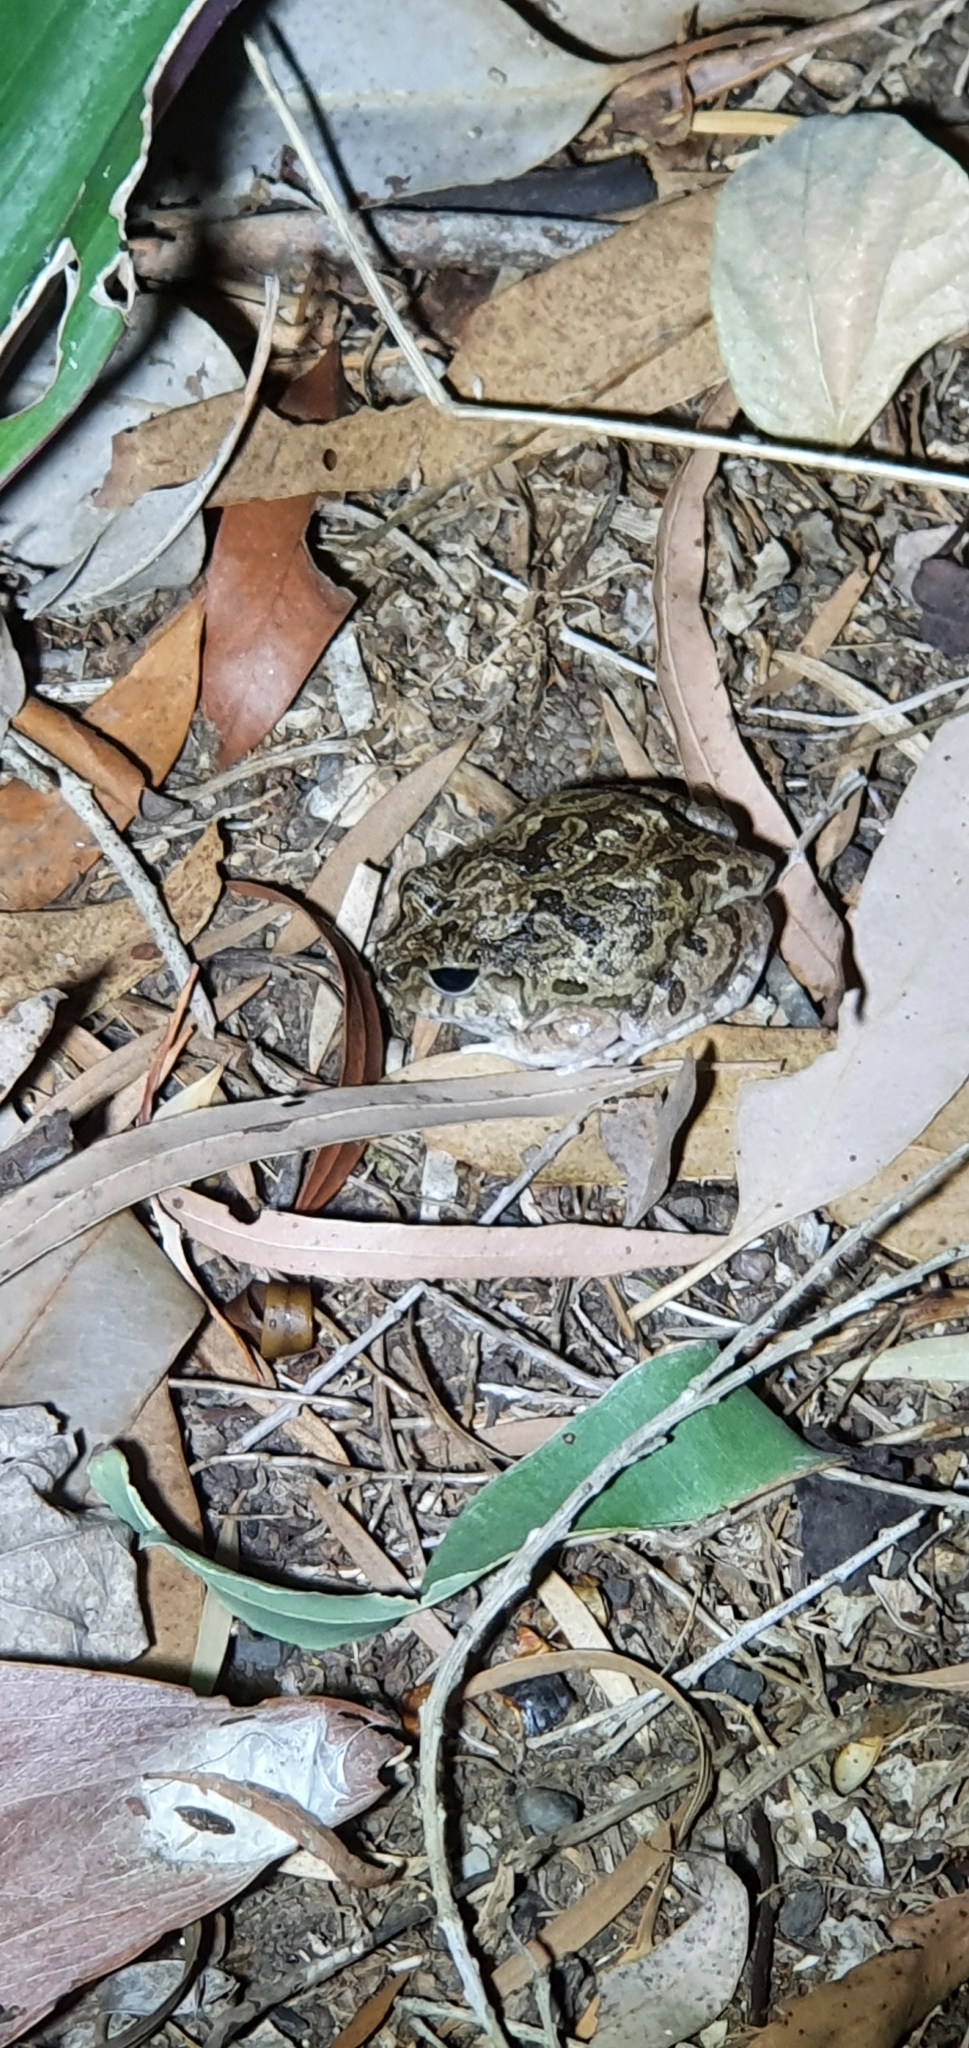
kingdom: Animalia
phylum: Chordata
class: Amphibia
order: Anura
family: Limnodynastidae
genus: Platyplectrum
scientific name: Platyplectrum ornatum
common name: Ornate burrowing frog
